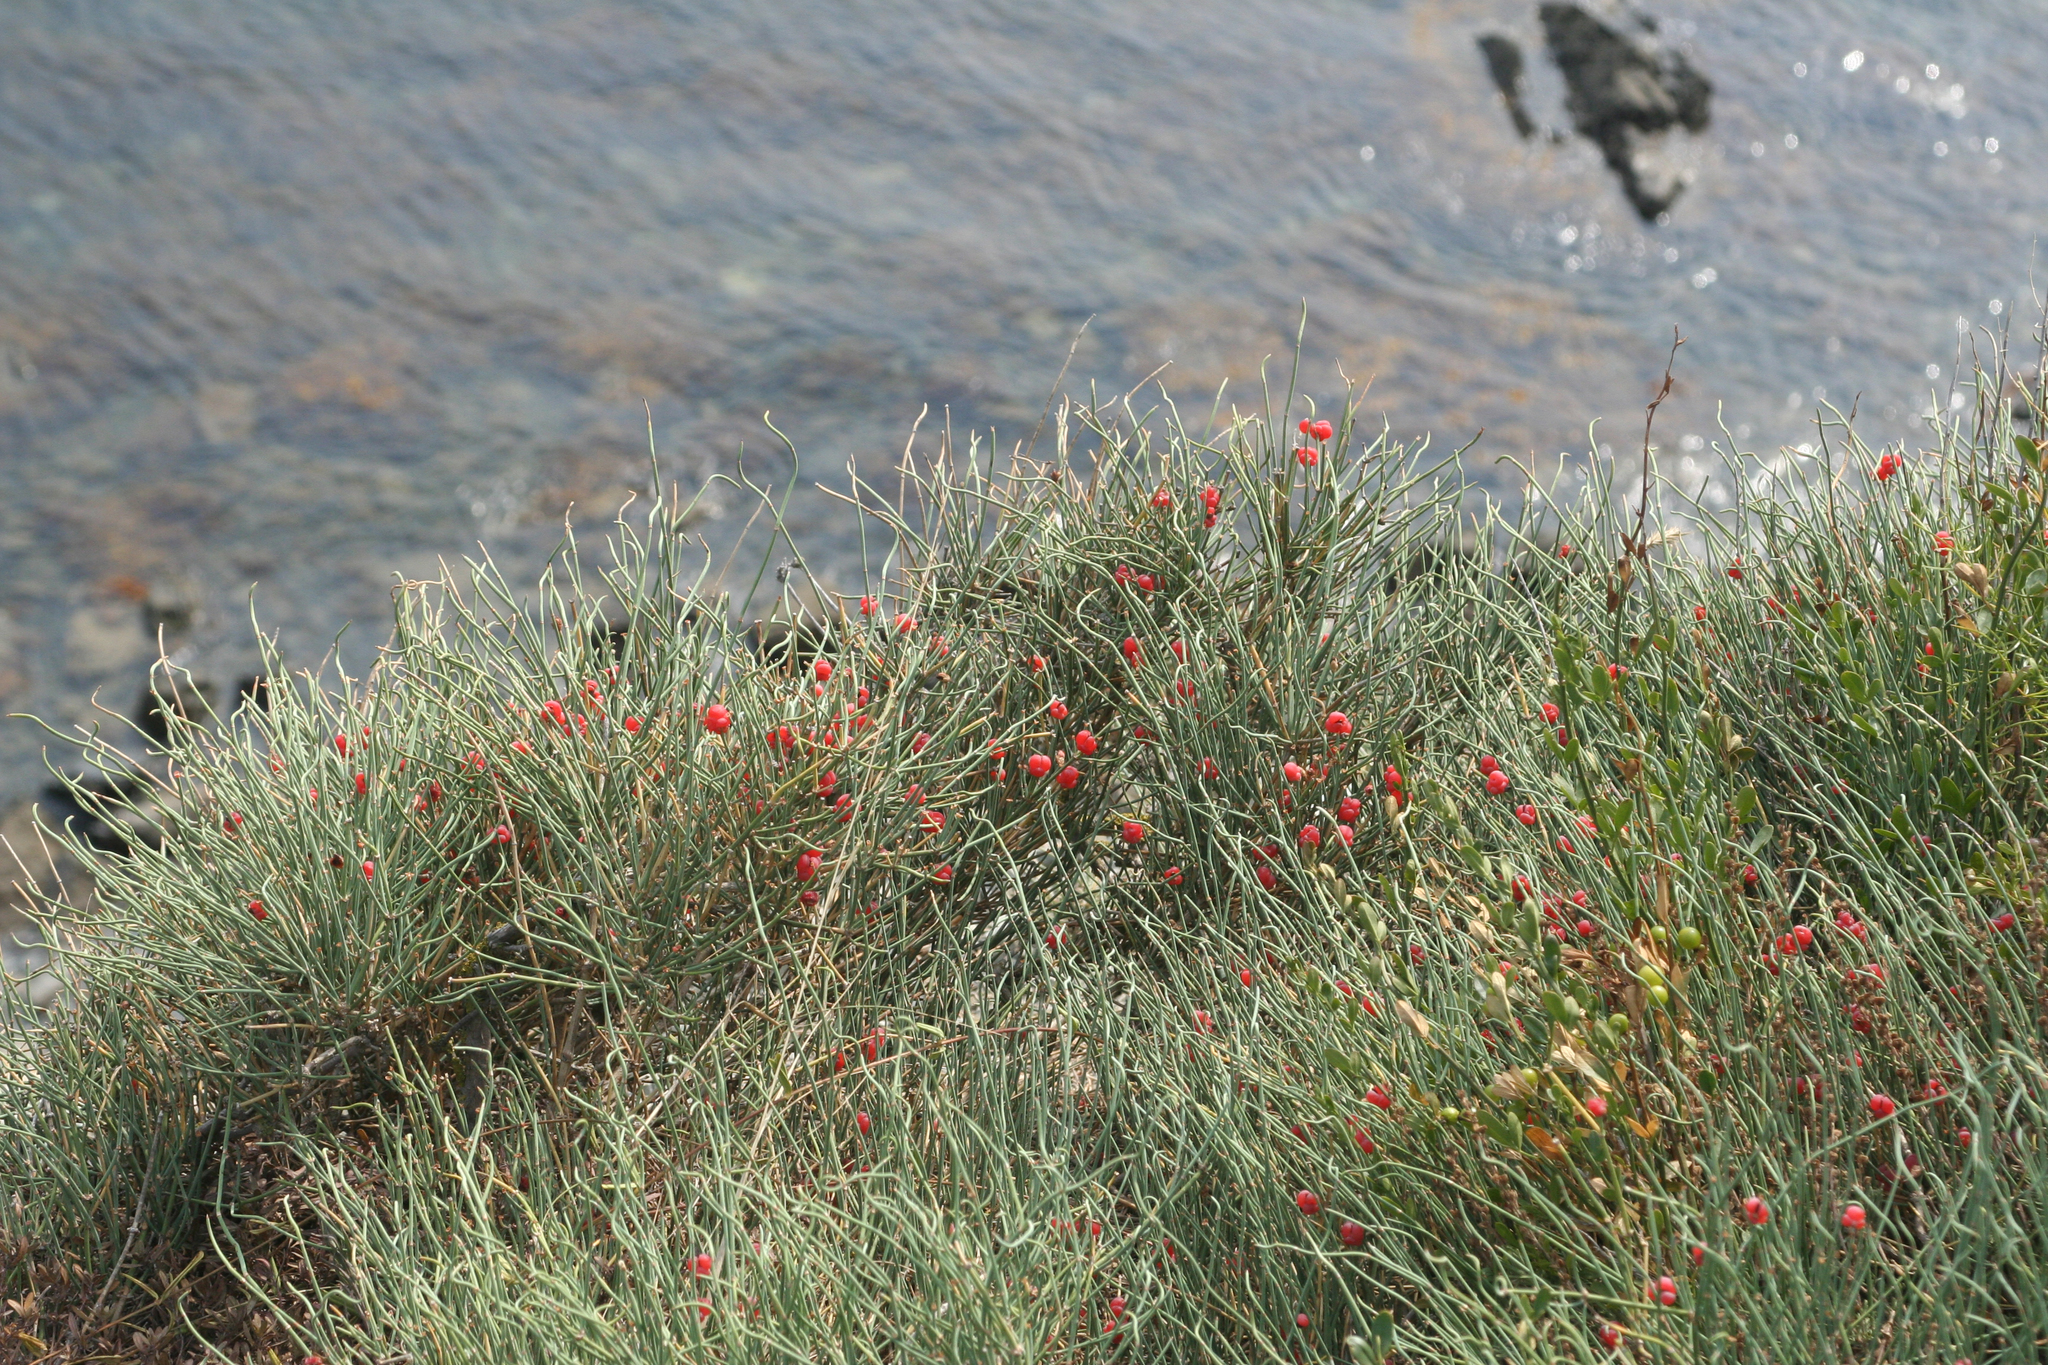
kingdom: Plantae
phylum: Tracheophyta
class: Gnetopsida
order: Ephedrales
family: Ephedraceae
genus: Ephedra
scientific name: Ephedra distachya
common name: Sea grape
